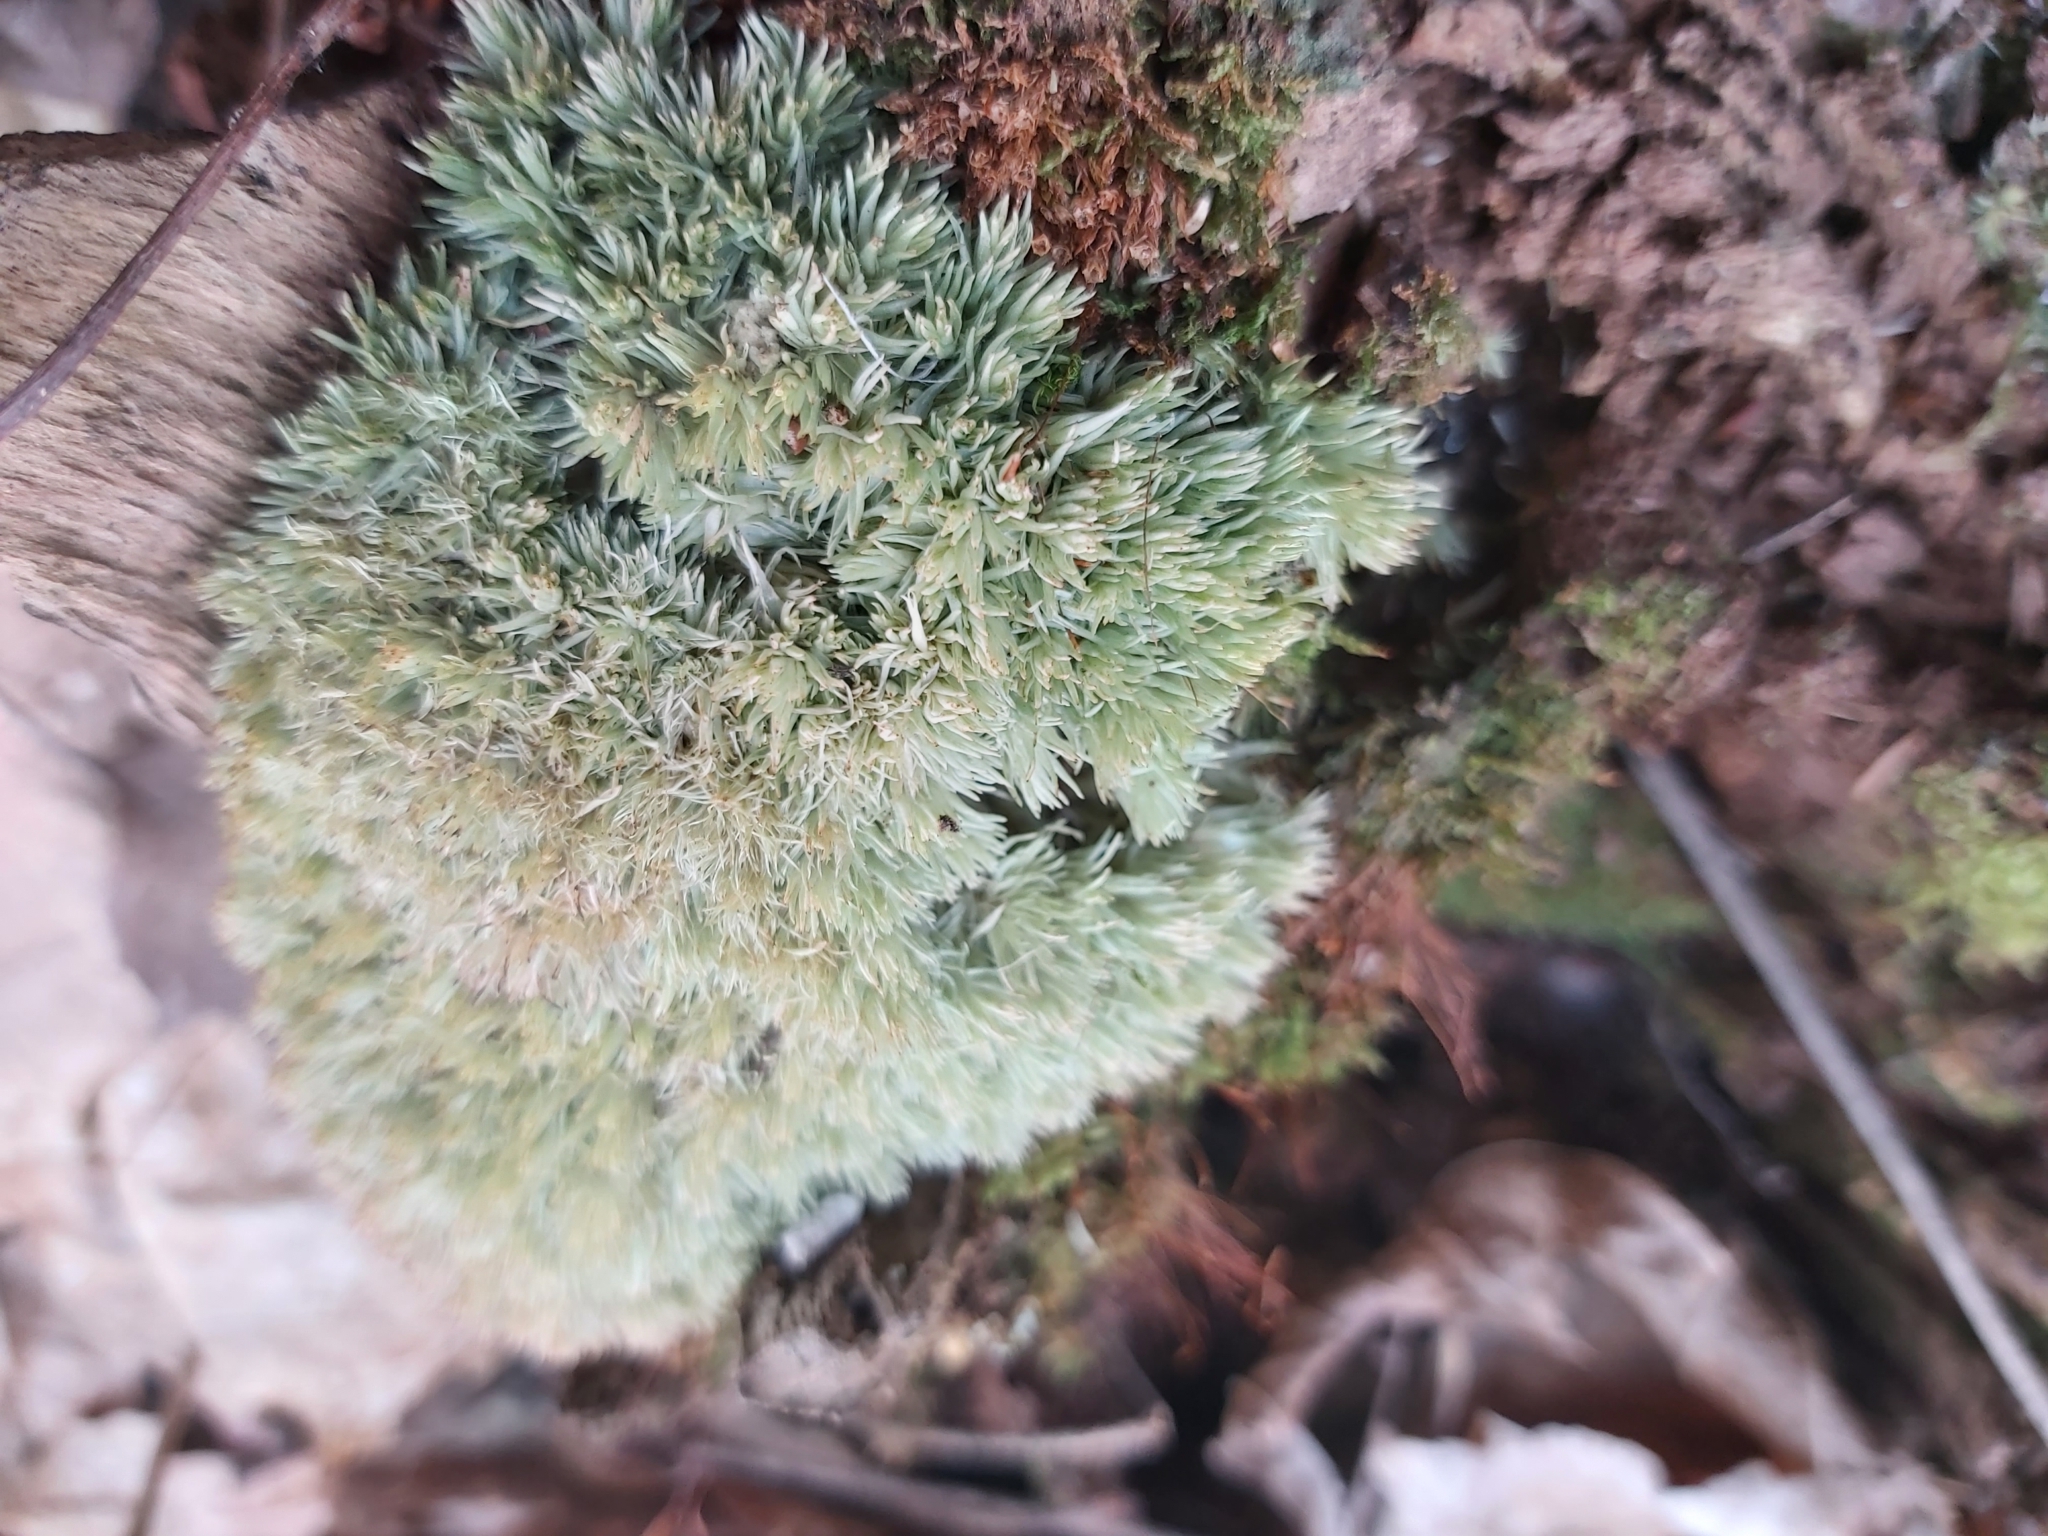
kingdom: Plantae
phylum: Bryophyta
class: Bryopsida
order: Dicranales
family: Leucobryaceae
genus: Leucobryum
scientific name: Leucobryum glaucum
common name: Large white-moss
